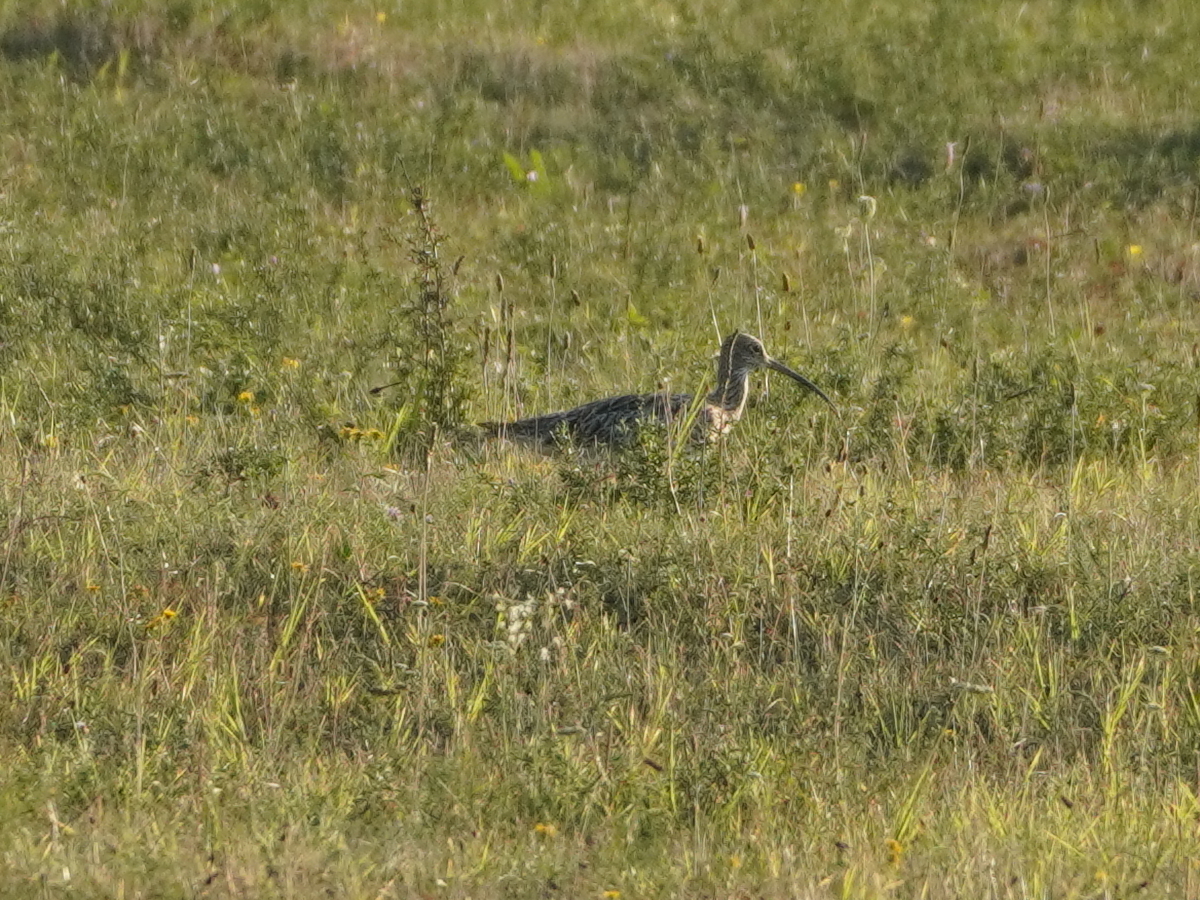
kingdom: Animalia
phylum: Chordata
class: Aves
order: Charadriiformes
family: Scolopacidae
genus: Numenius
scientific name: Numenius arquata
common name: Eurasian curlew
